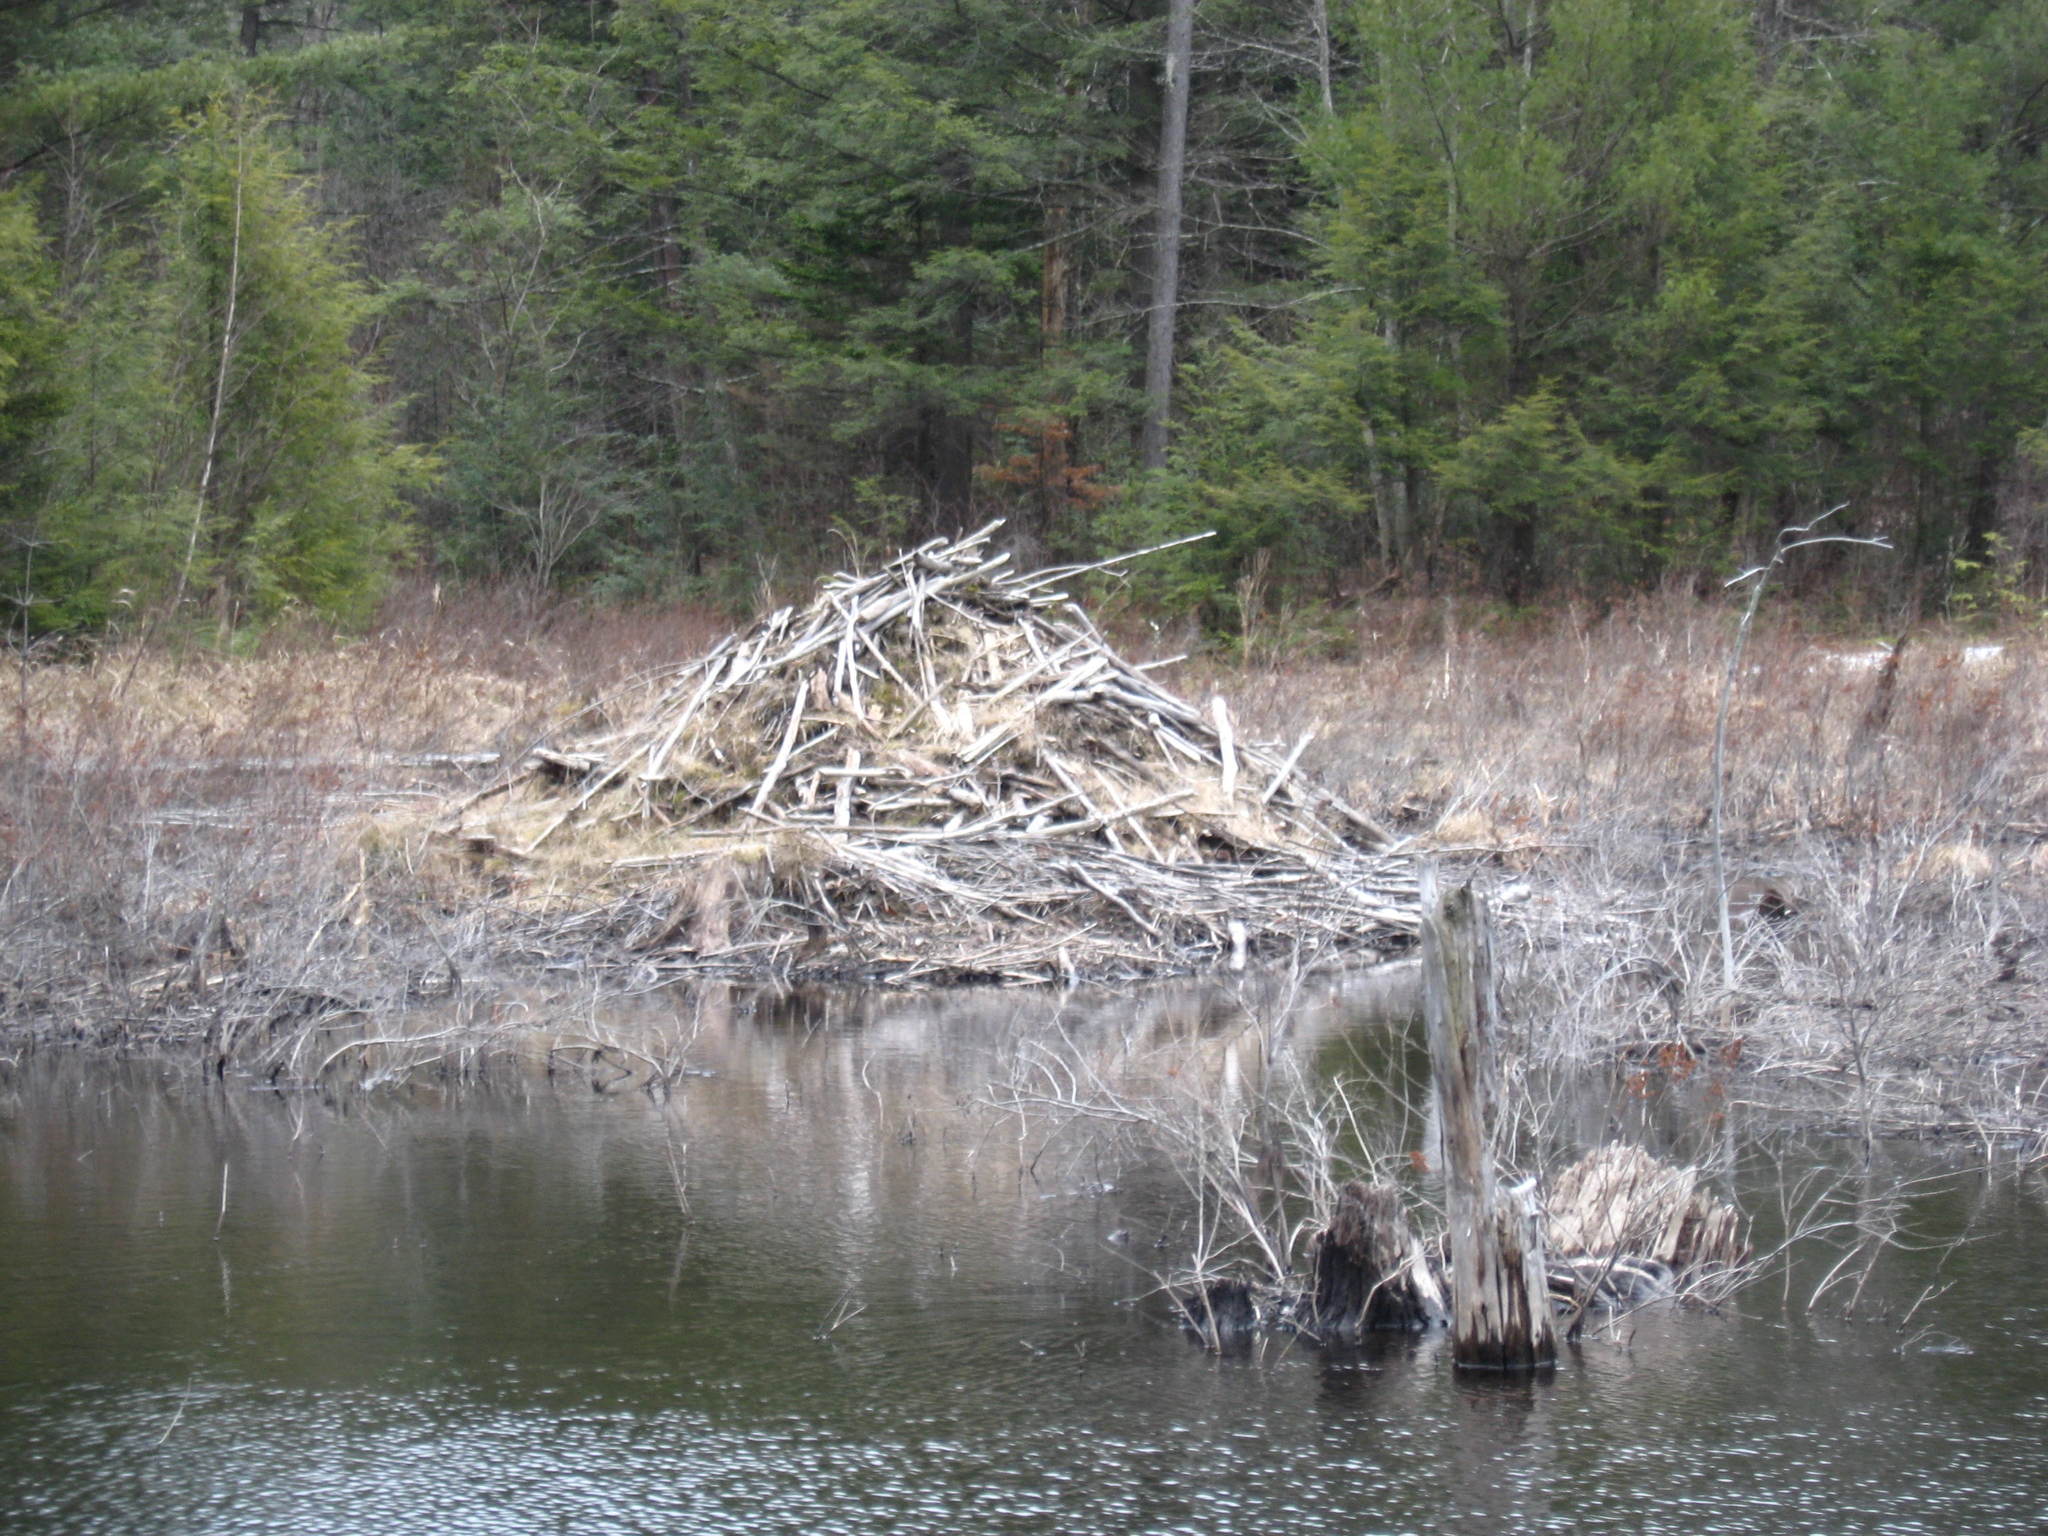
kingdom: Animalia
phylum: Chordata
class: Mammalia
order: Rodentia
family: Castoridae
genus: Castor
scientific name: Castor canadensis
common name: American beaver
